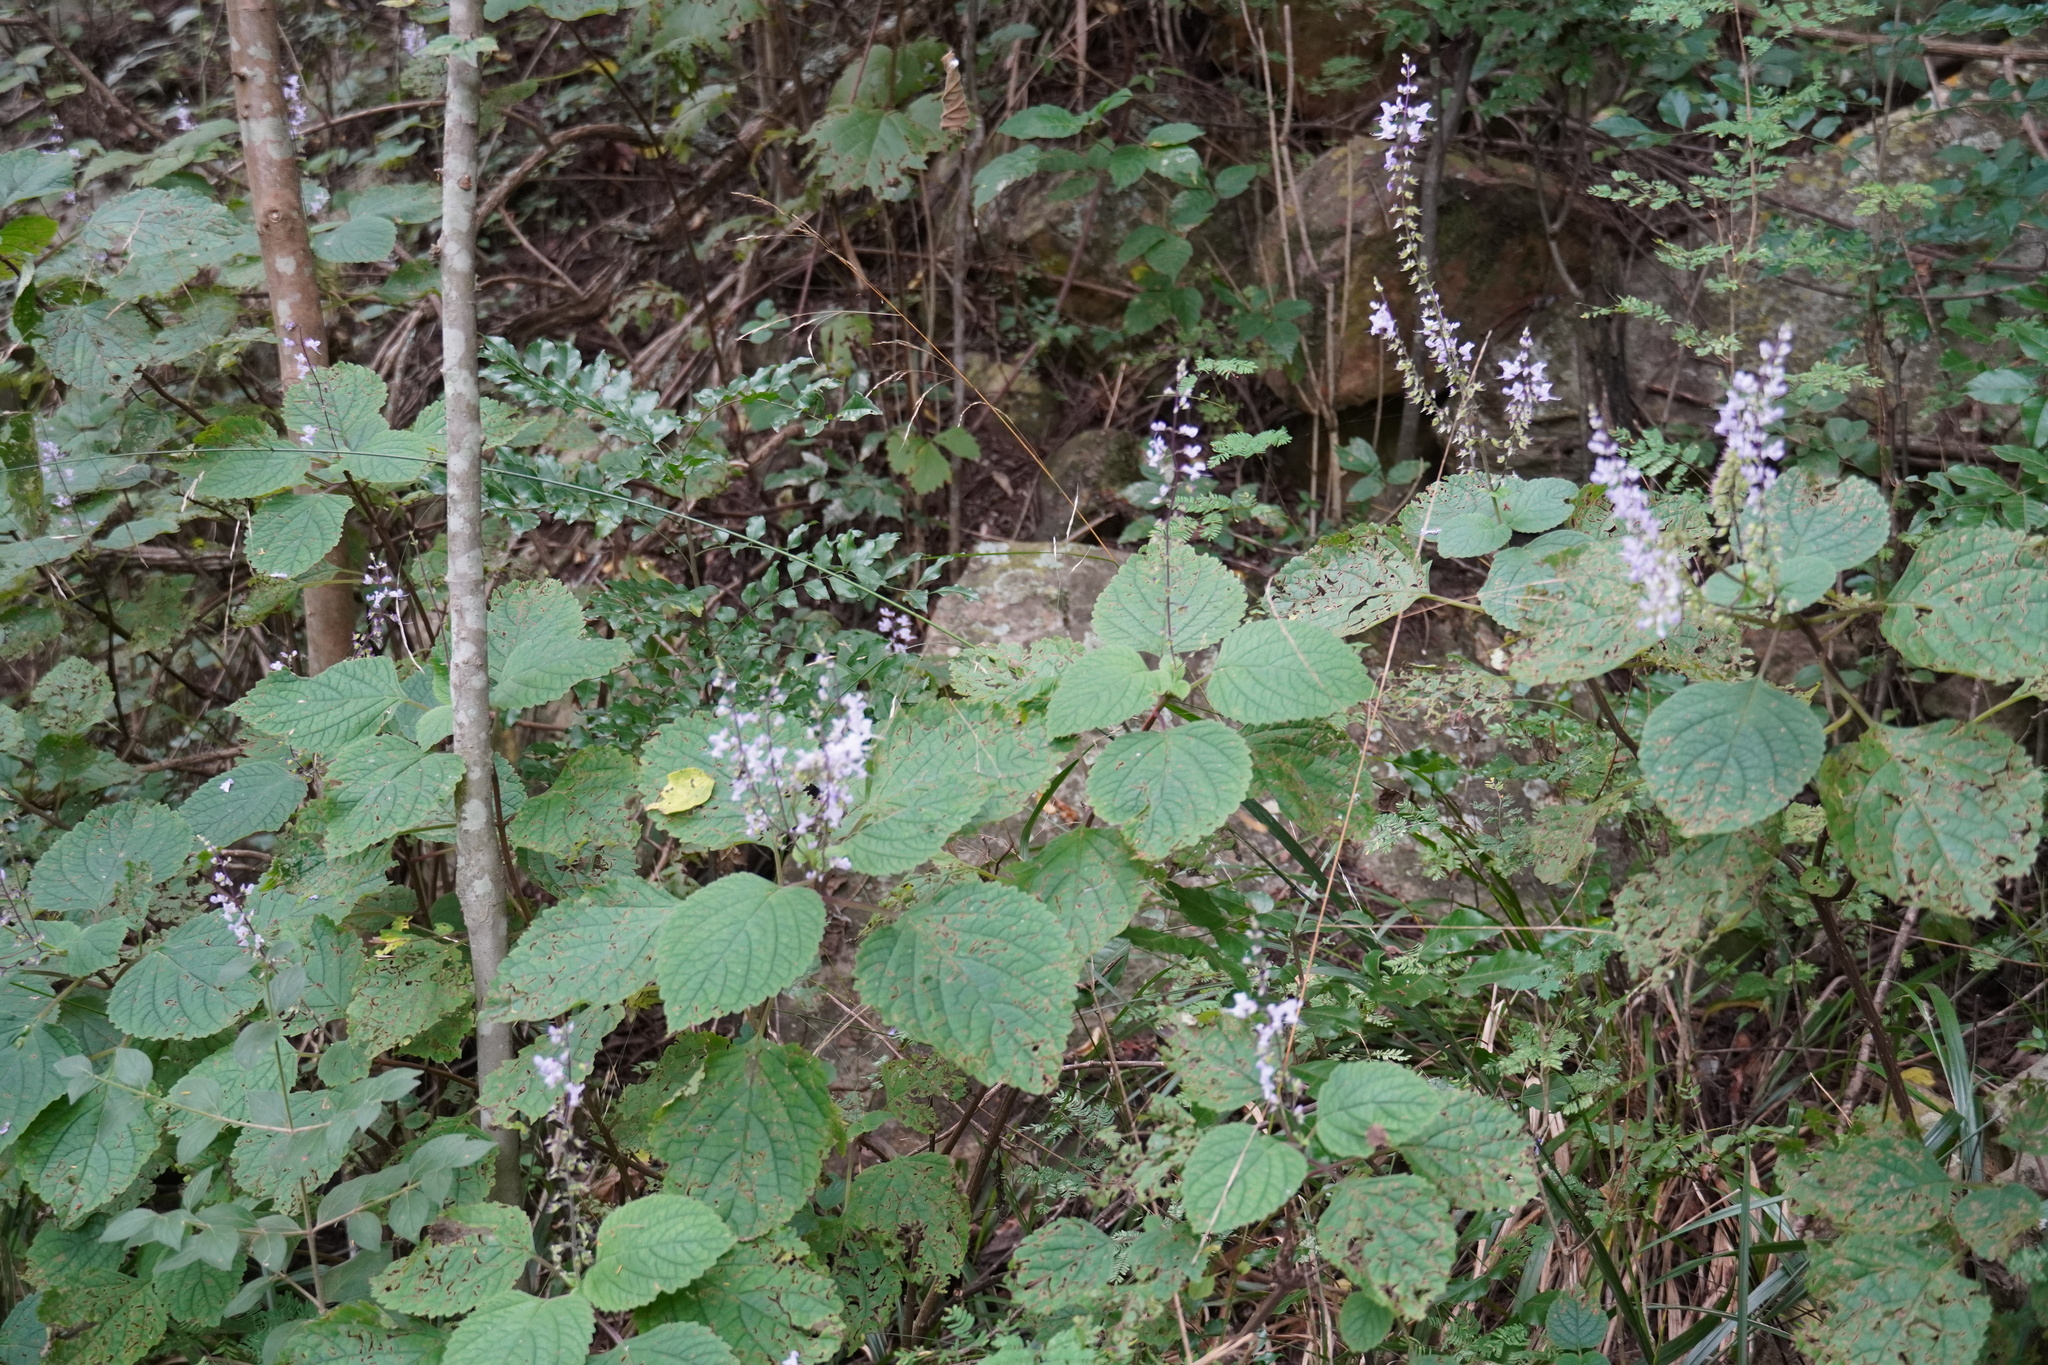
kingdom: Plantae
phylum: Tracheophyta
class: Magnoliopsida
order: Lamiales
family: Lamiaceae
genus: Plectranthus
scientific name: Plectranthus fruticosus
